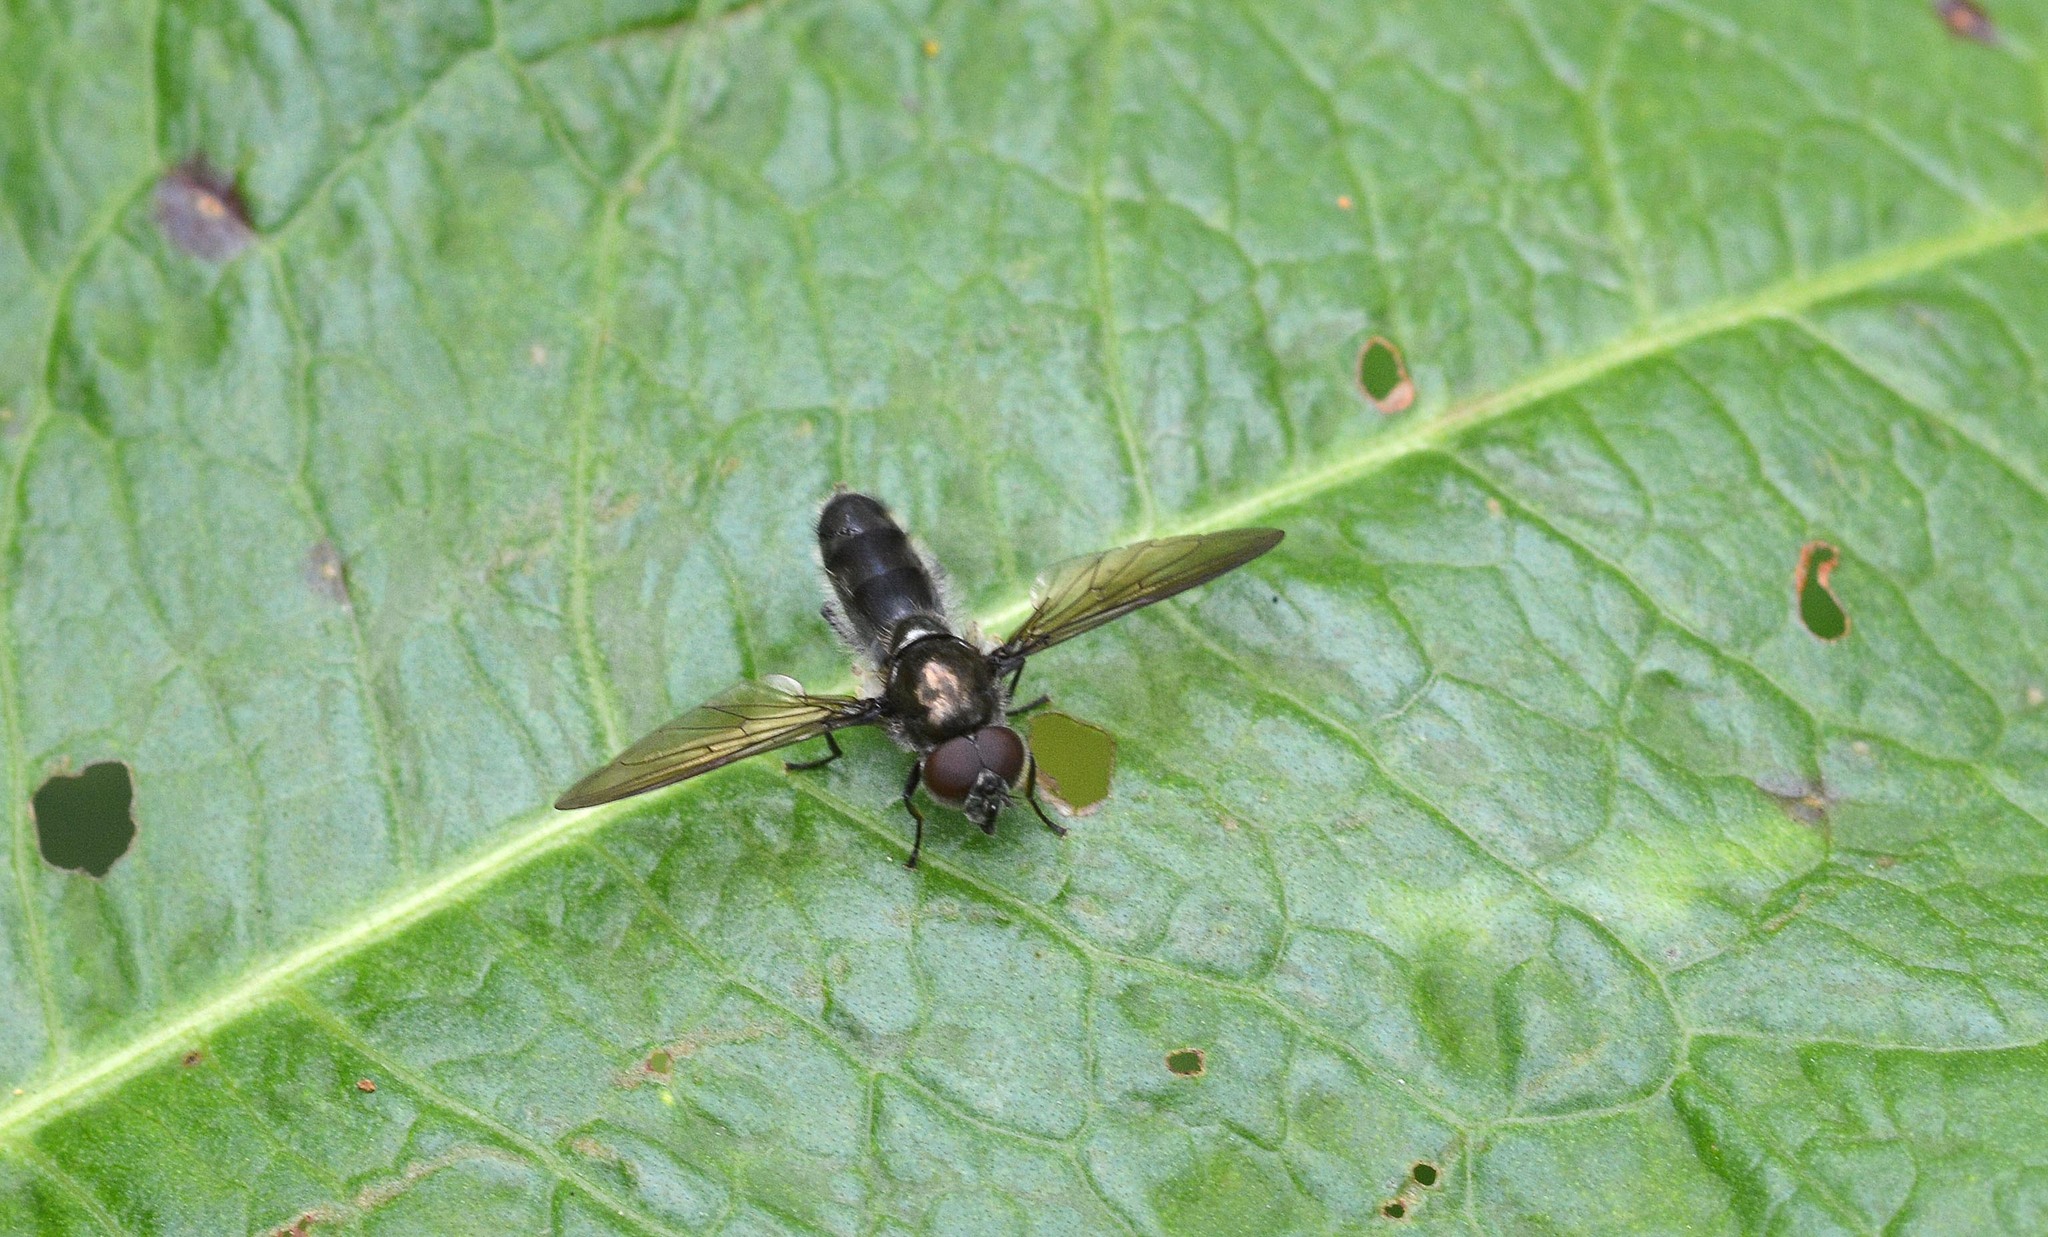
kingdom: Animalia
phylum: Arthropoda
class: Insecta
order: Diptera
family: Syrphidae
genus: Cheilosia
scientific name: Cheilosia
